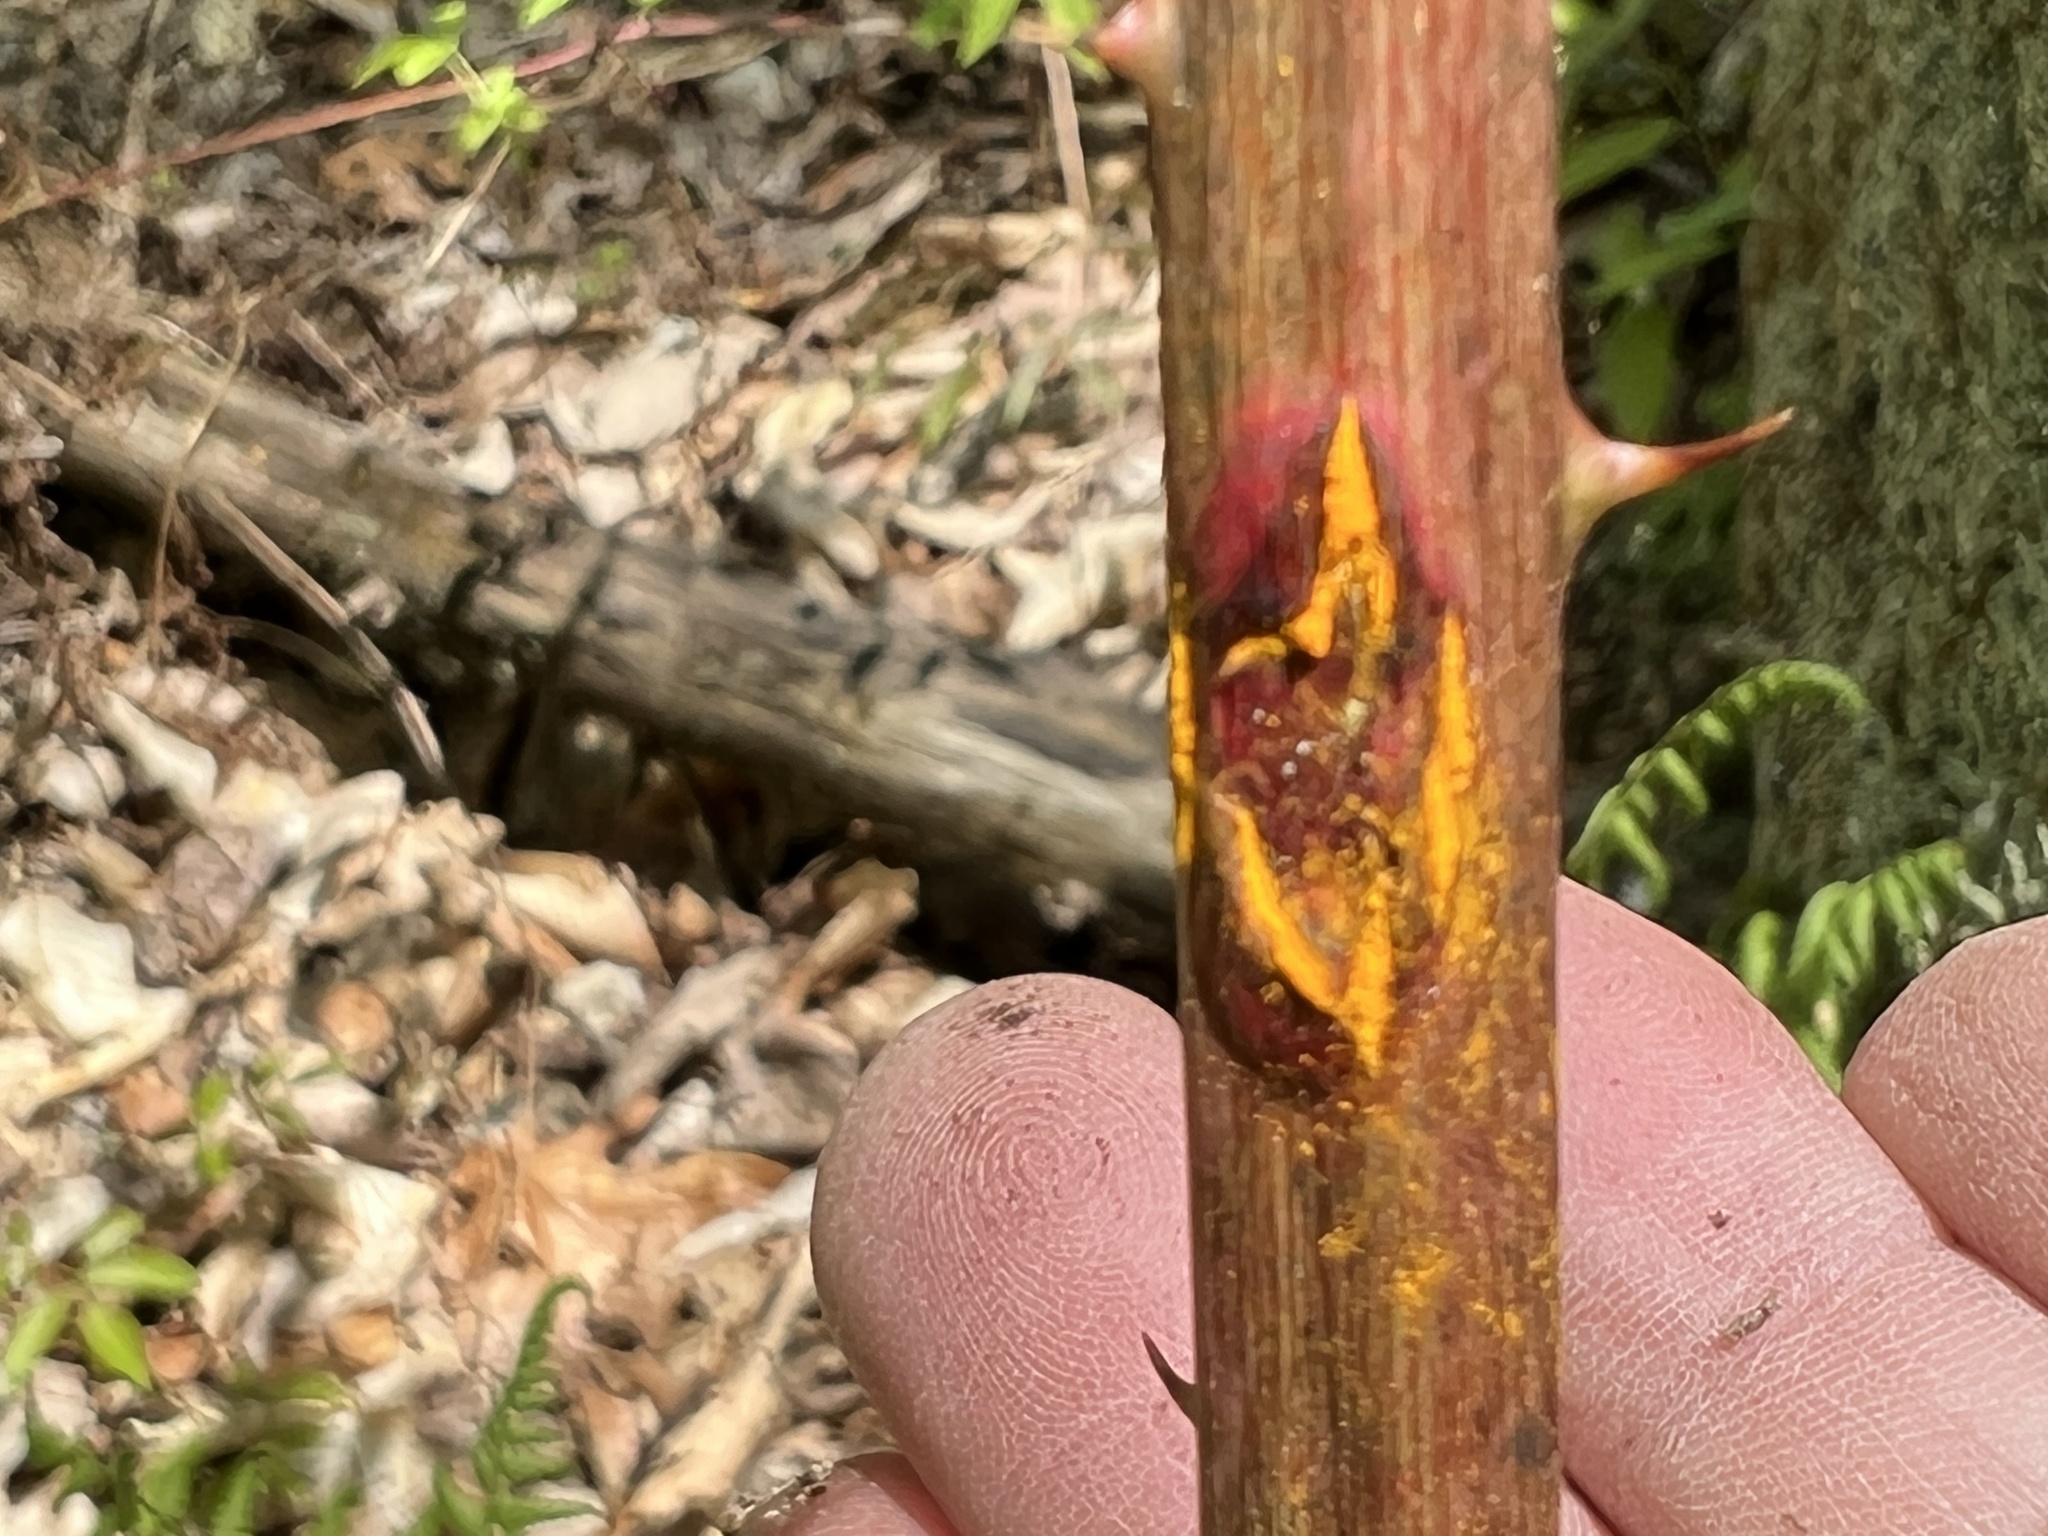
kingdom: Fungi
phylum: Basidiomycota
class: Pucciniomycetes
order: Pucciniales
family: Phragmidiaceae
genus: Kuehneola
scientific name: Kuehneola uredinis
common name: Bramble stem rust
